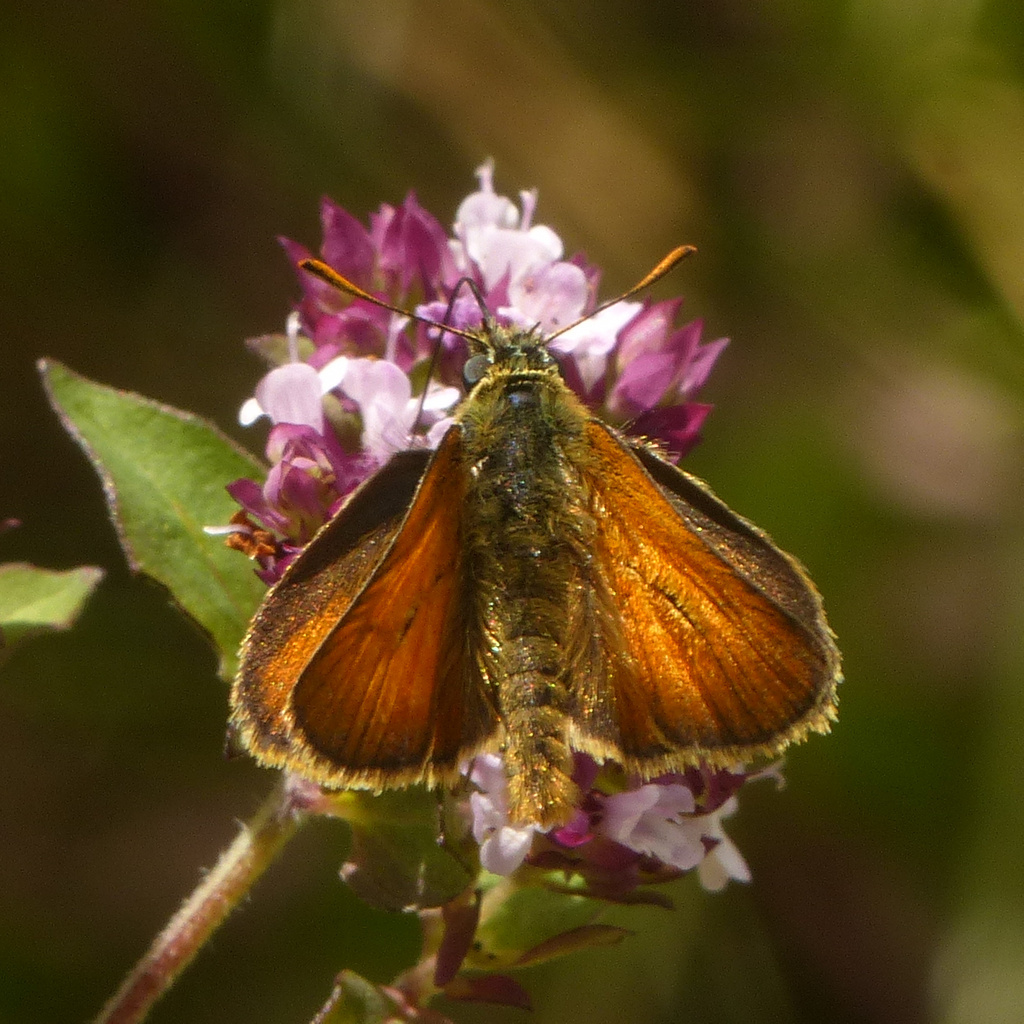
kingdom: Animalia
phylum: Arthropoda
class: Insecta
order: Lepidoptera
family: Hesperiidae
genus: Thymelicus
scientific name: Thymelicus sylvestris
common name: Small skipper
